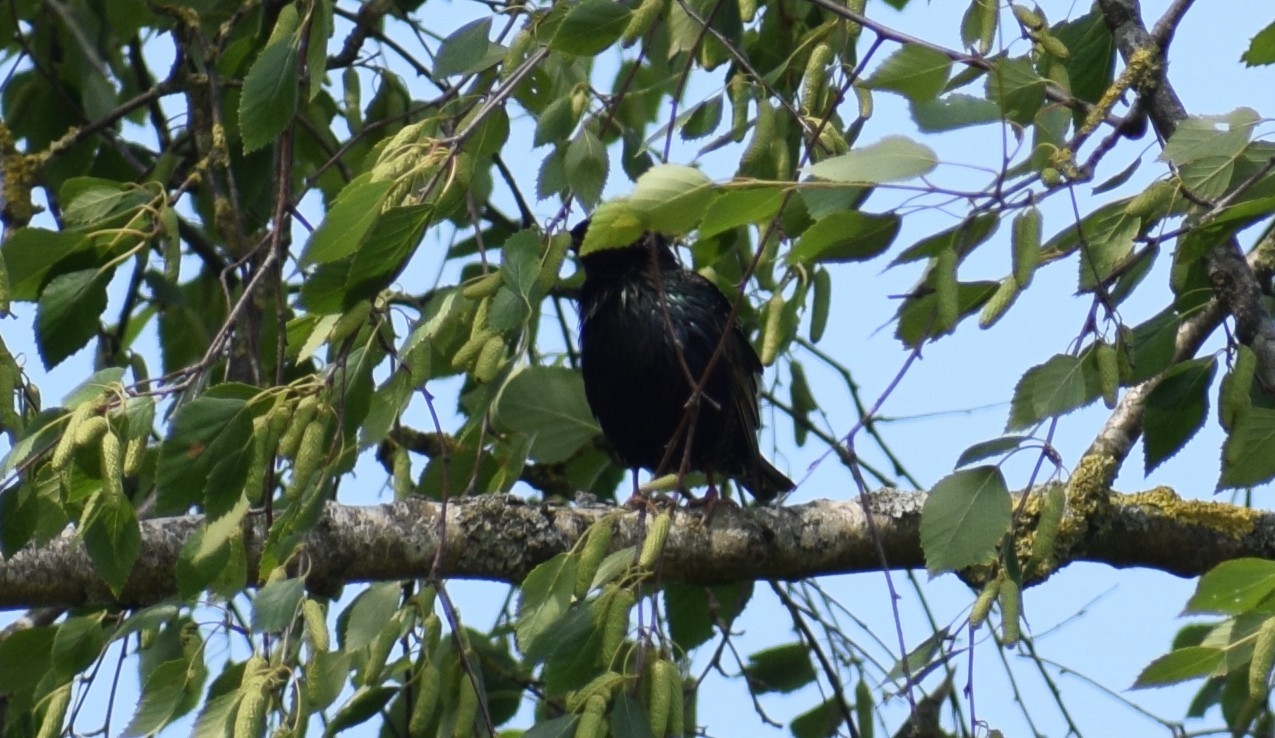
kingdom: Animalia
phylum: Chordata
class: Aves
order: Passeriformes
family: Sturnidae
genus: Sturnus
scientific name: Sturnus vulgaris
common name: Common starling
